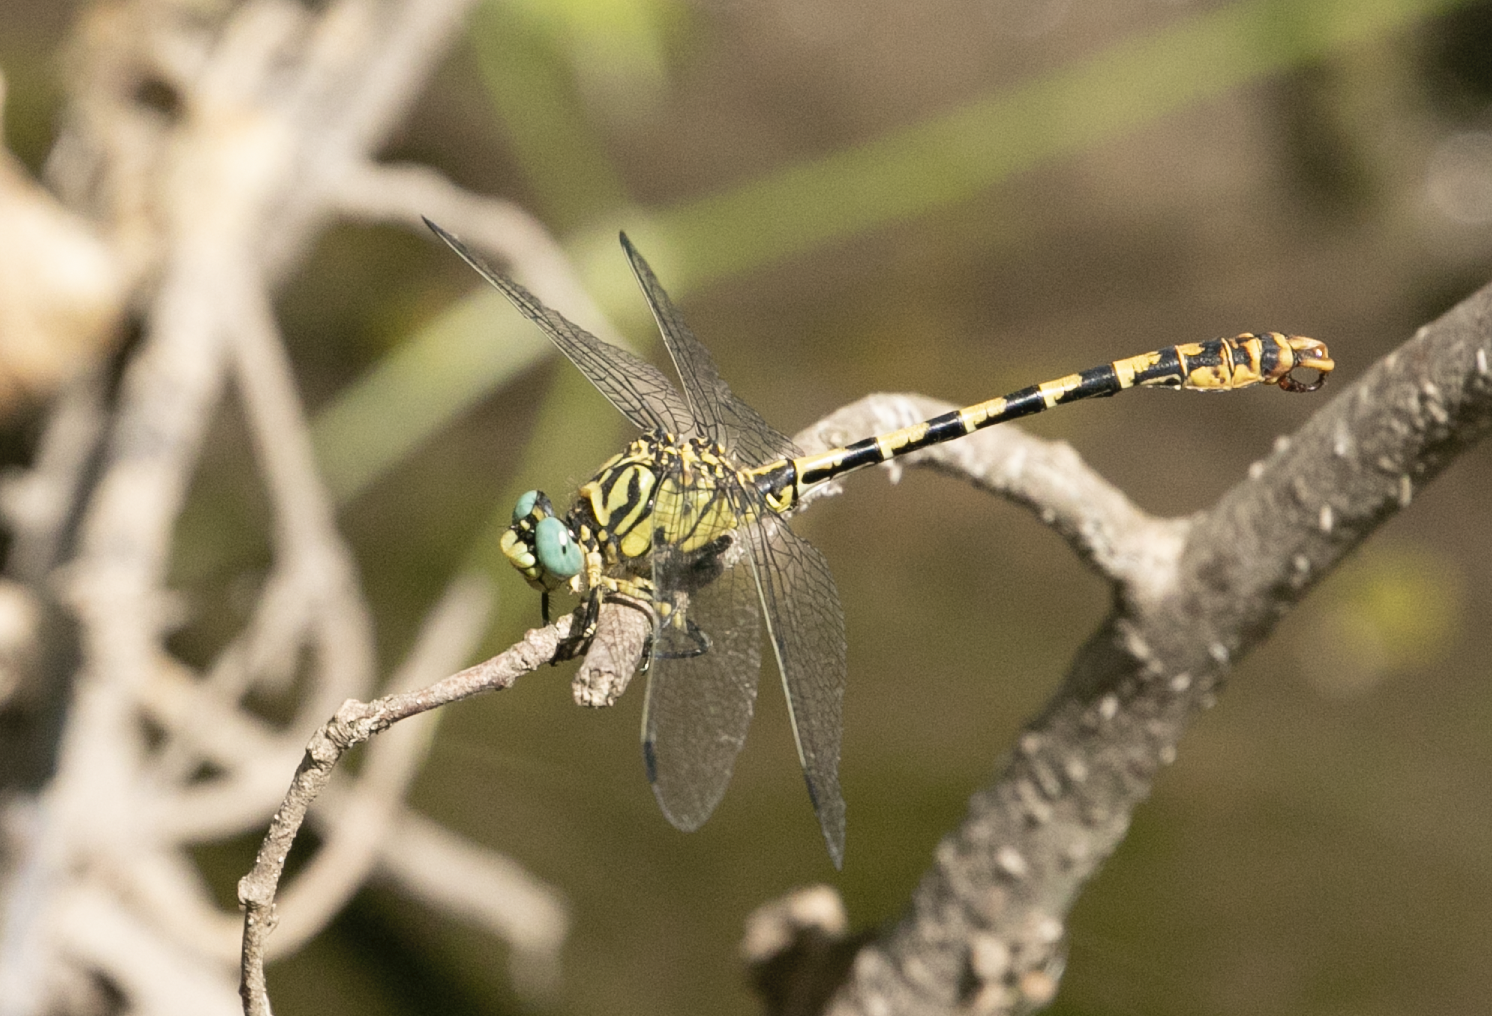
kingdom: Animalia
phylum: Arthropoda
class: Insecta
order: Odonata
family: Gomphidae
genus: Onychogomphus
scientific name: Onychogomphus forcipatus
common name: Small pincertail
